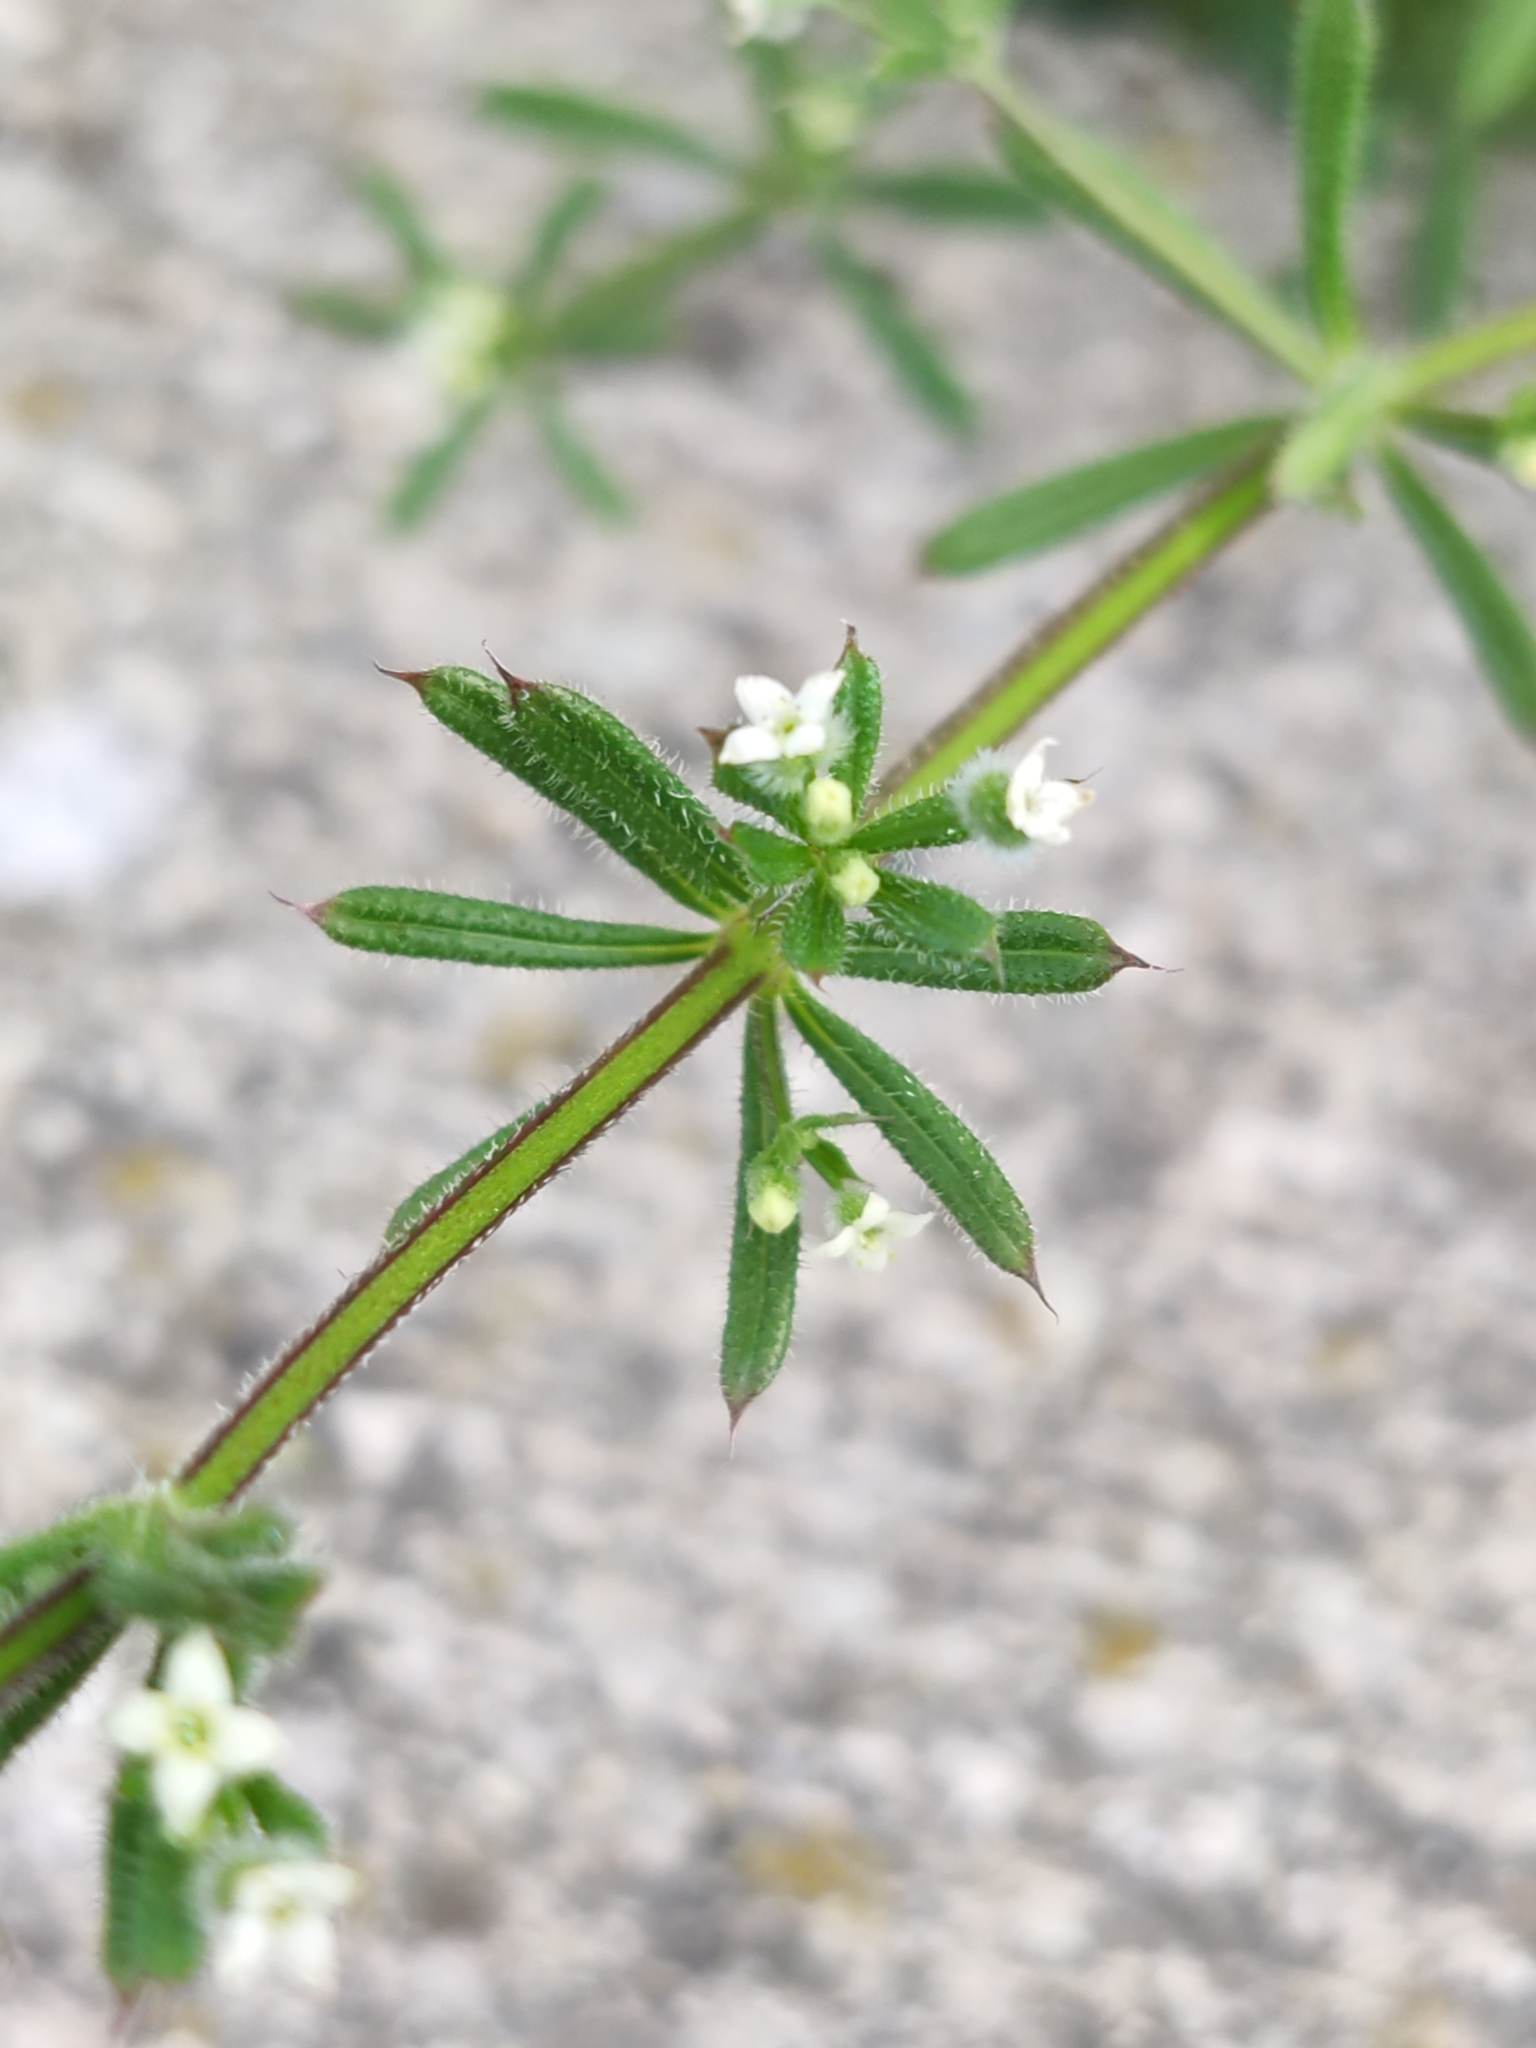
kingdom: Plantae
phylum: Tracheophyta
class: Magnoliopsida
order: Gentianales
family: Rubiaceae
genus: Galium
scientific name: Galium aparine
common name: Cleavers
